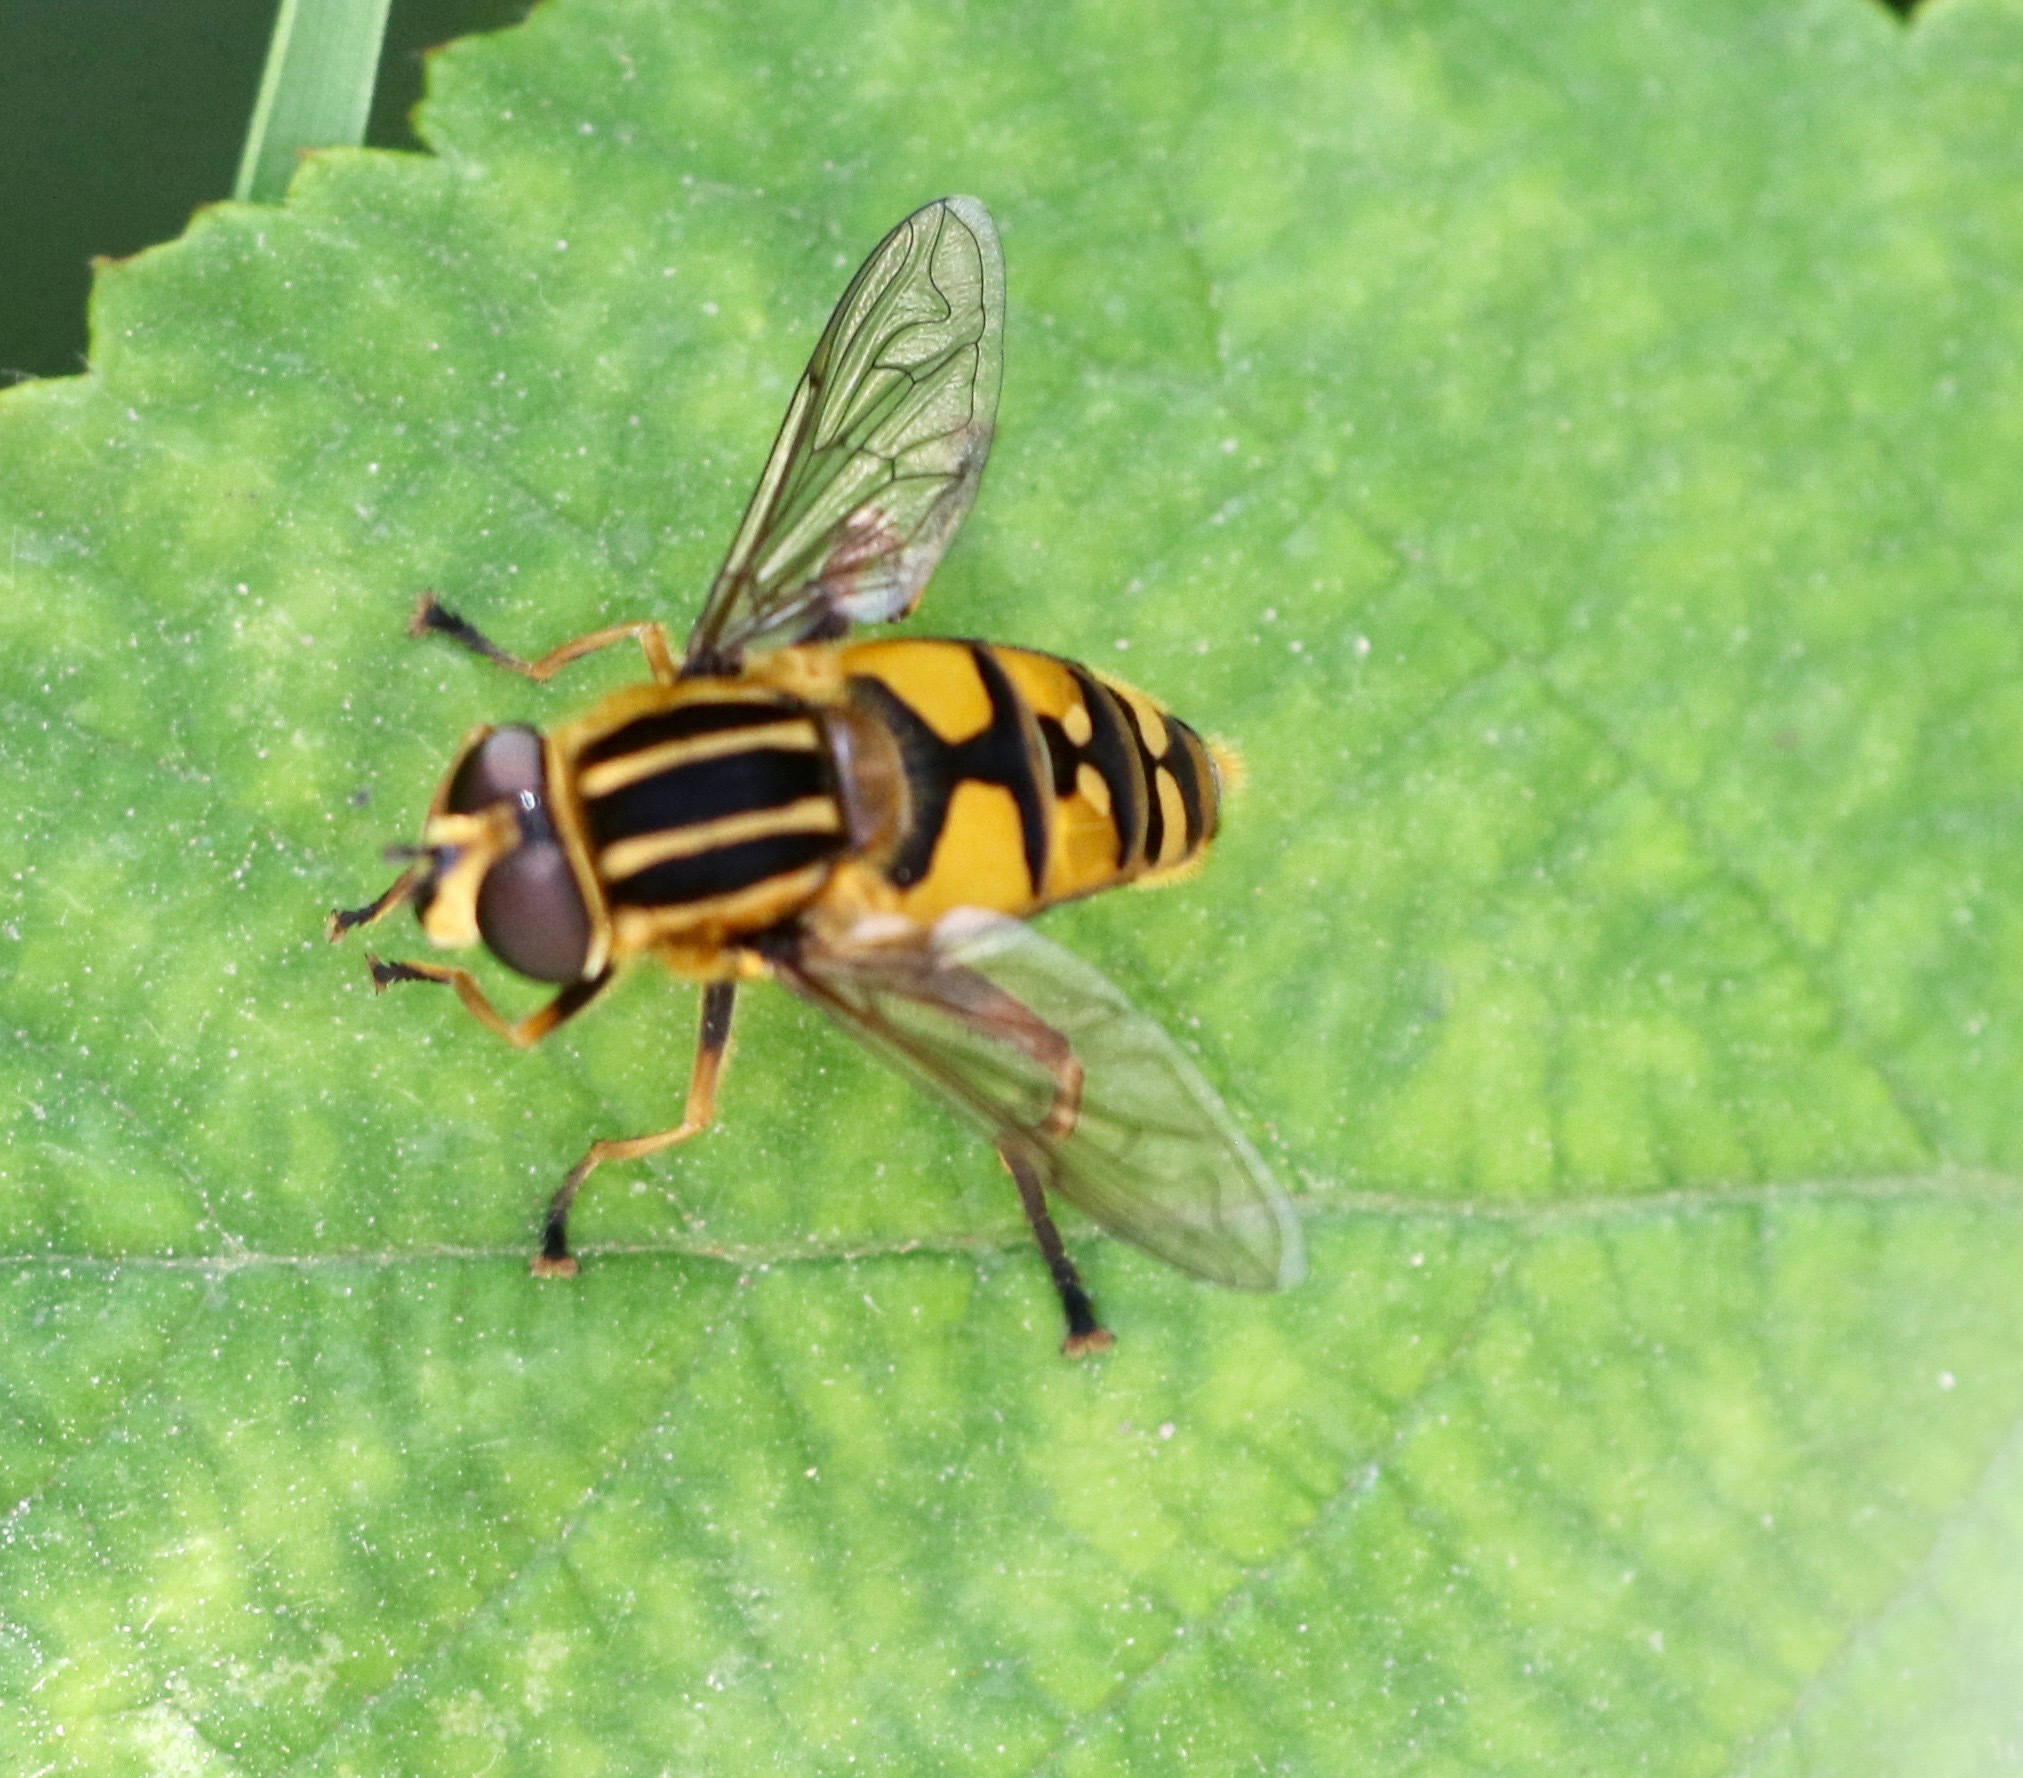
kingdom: Animalia
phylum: Arthropoda
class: Insecta
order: Diptera
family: Syrphidae
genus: Helophilus
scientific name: Helophilus pendulus
